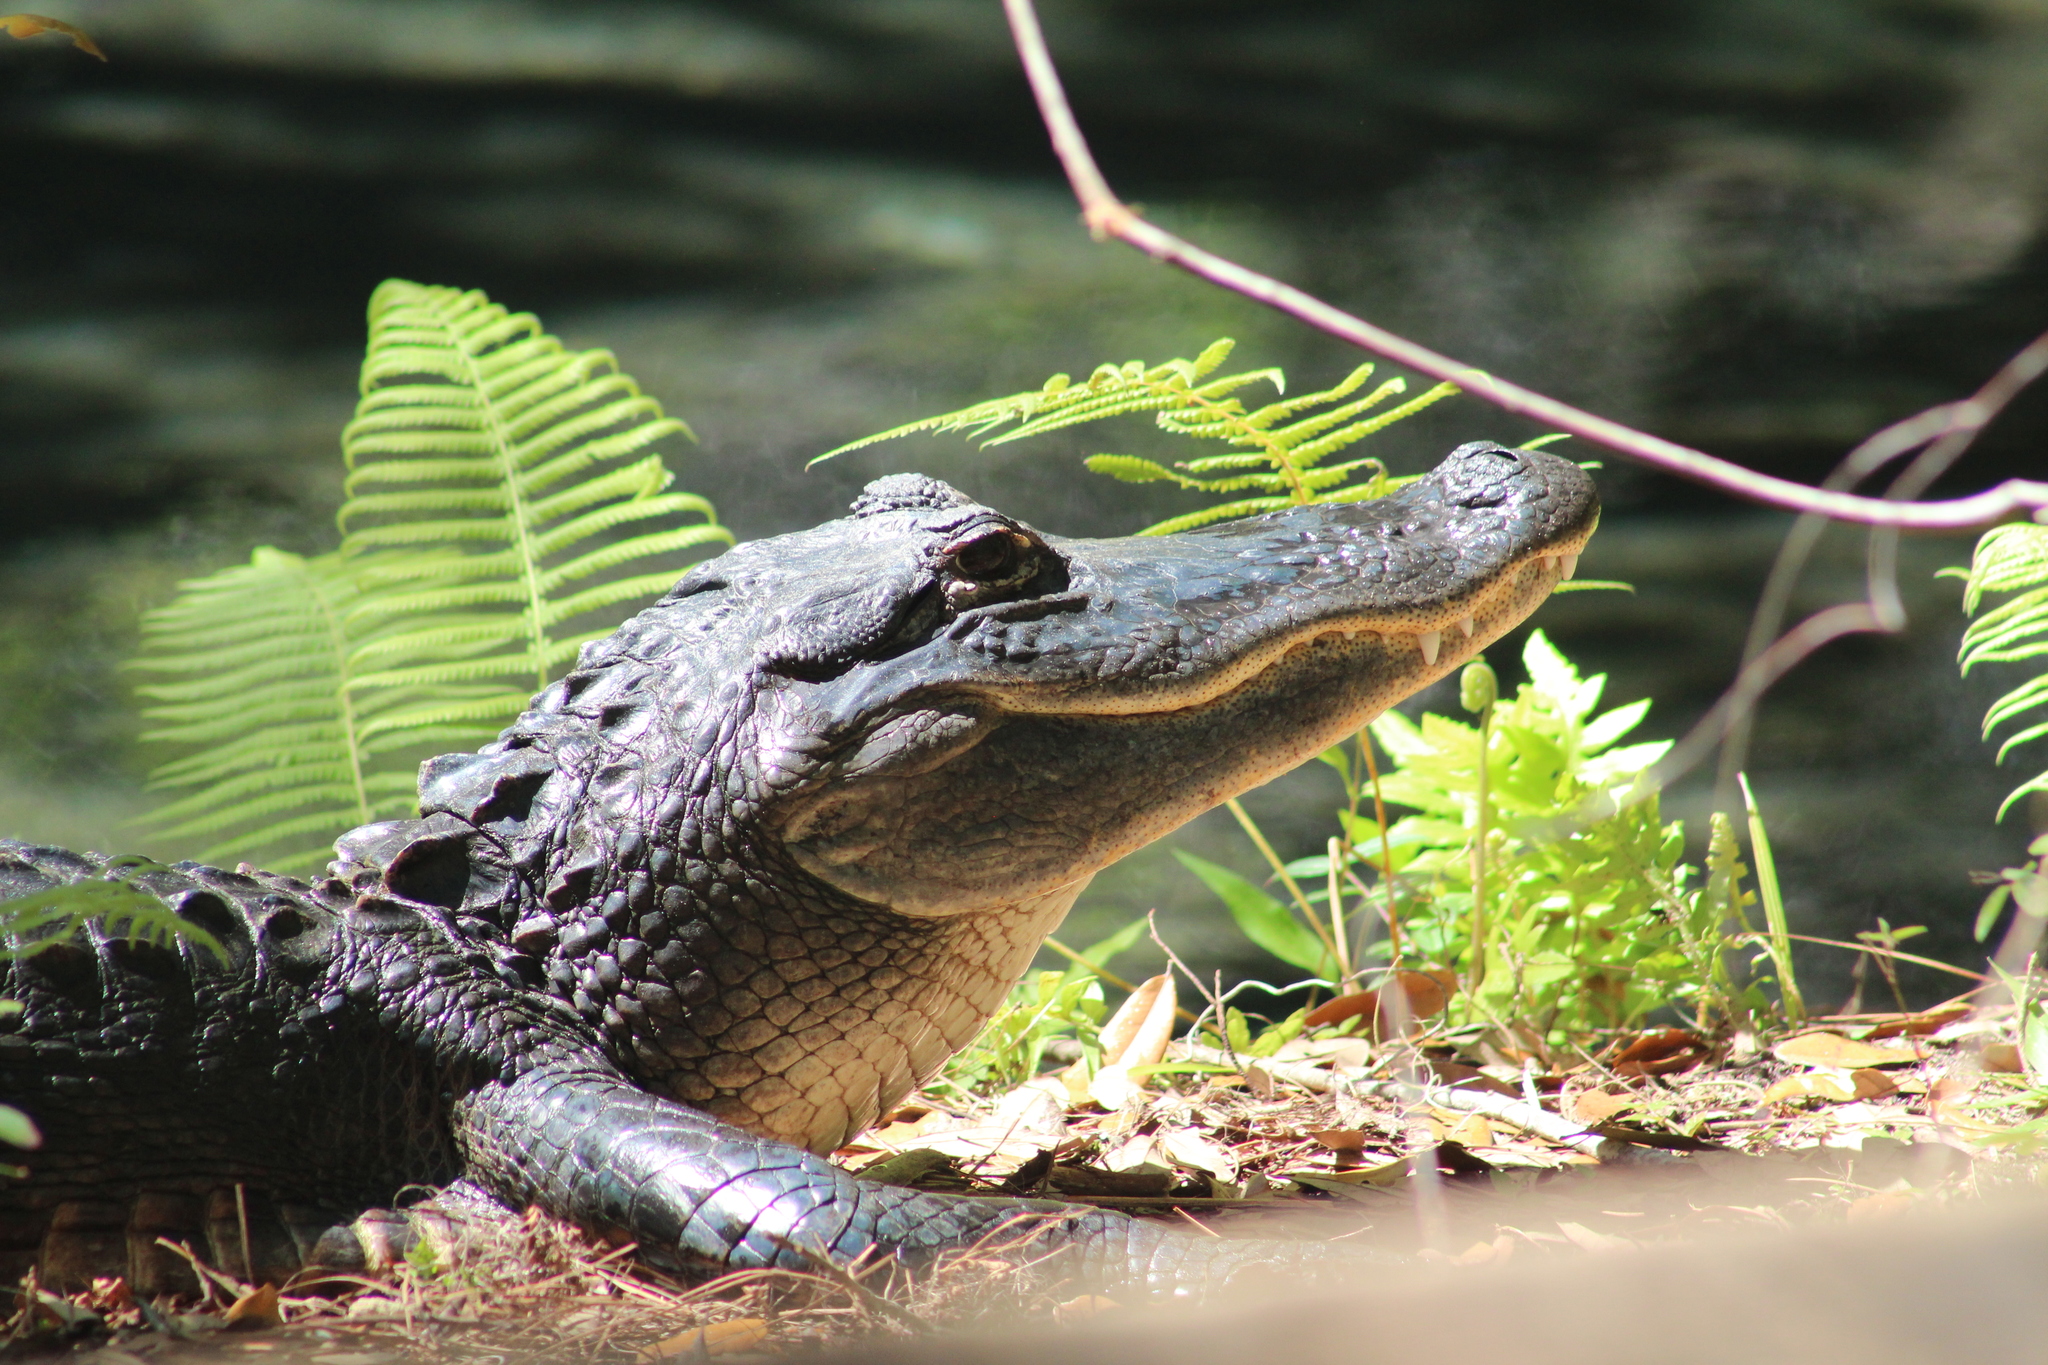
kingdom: Animalia
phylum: Chordata
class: Crocodylia
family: Alligatoridae
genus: Alligator
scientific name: Alligator mississippiensis
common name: American alligator
